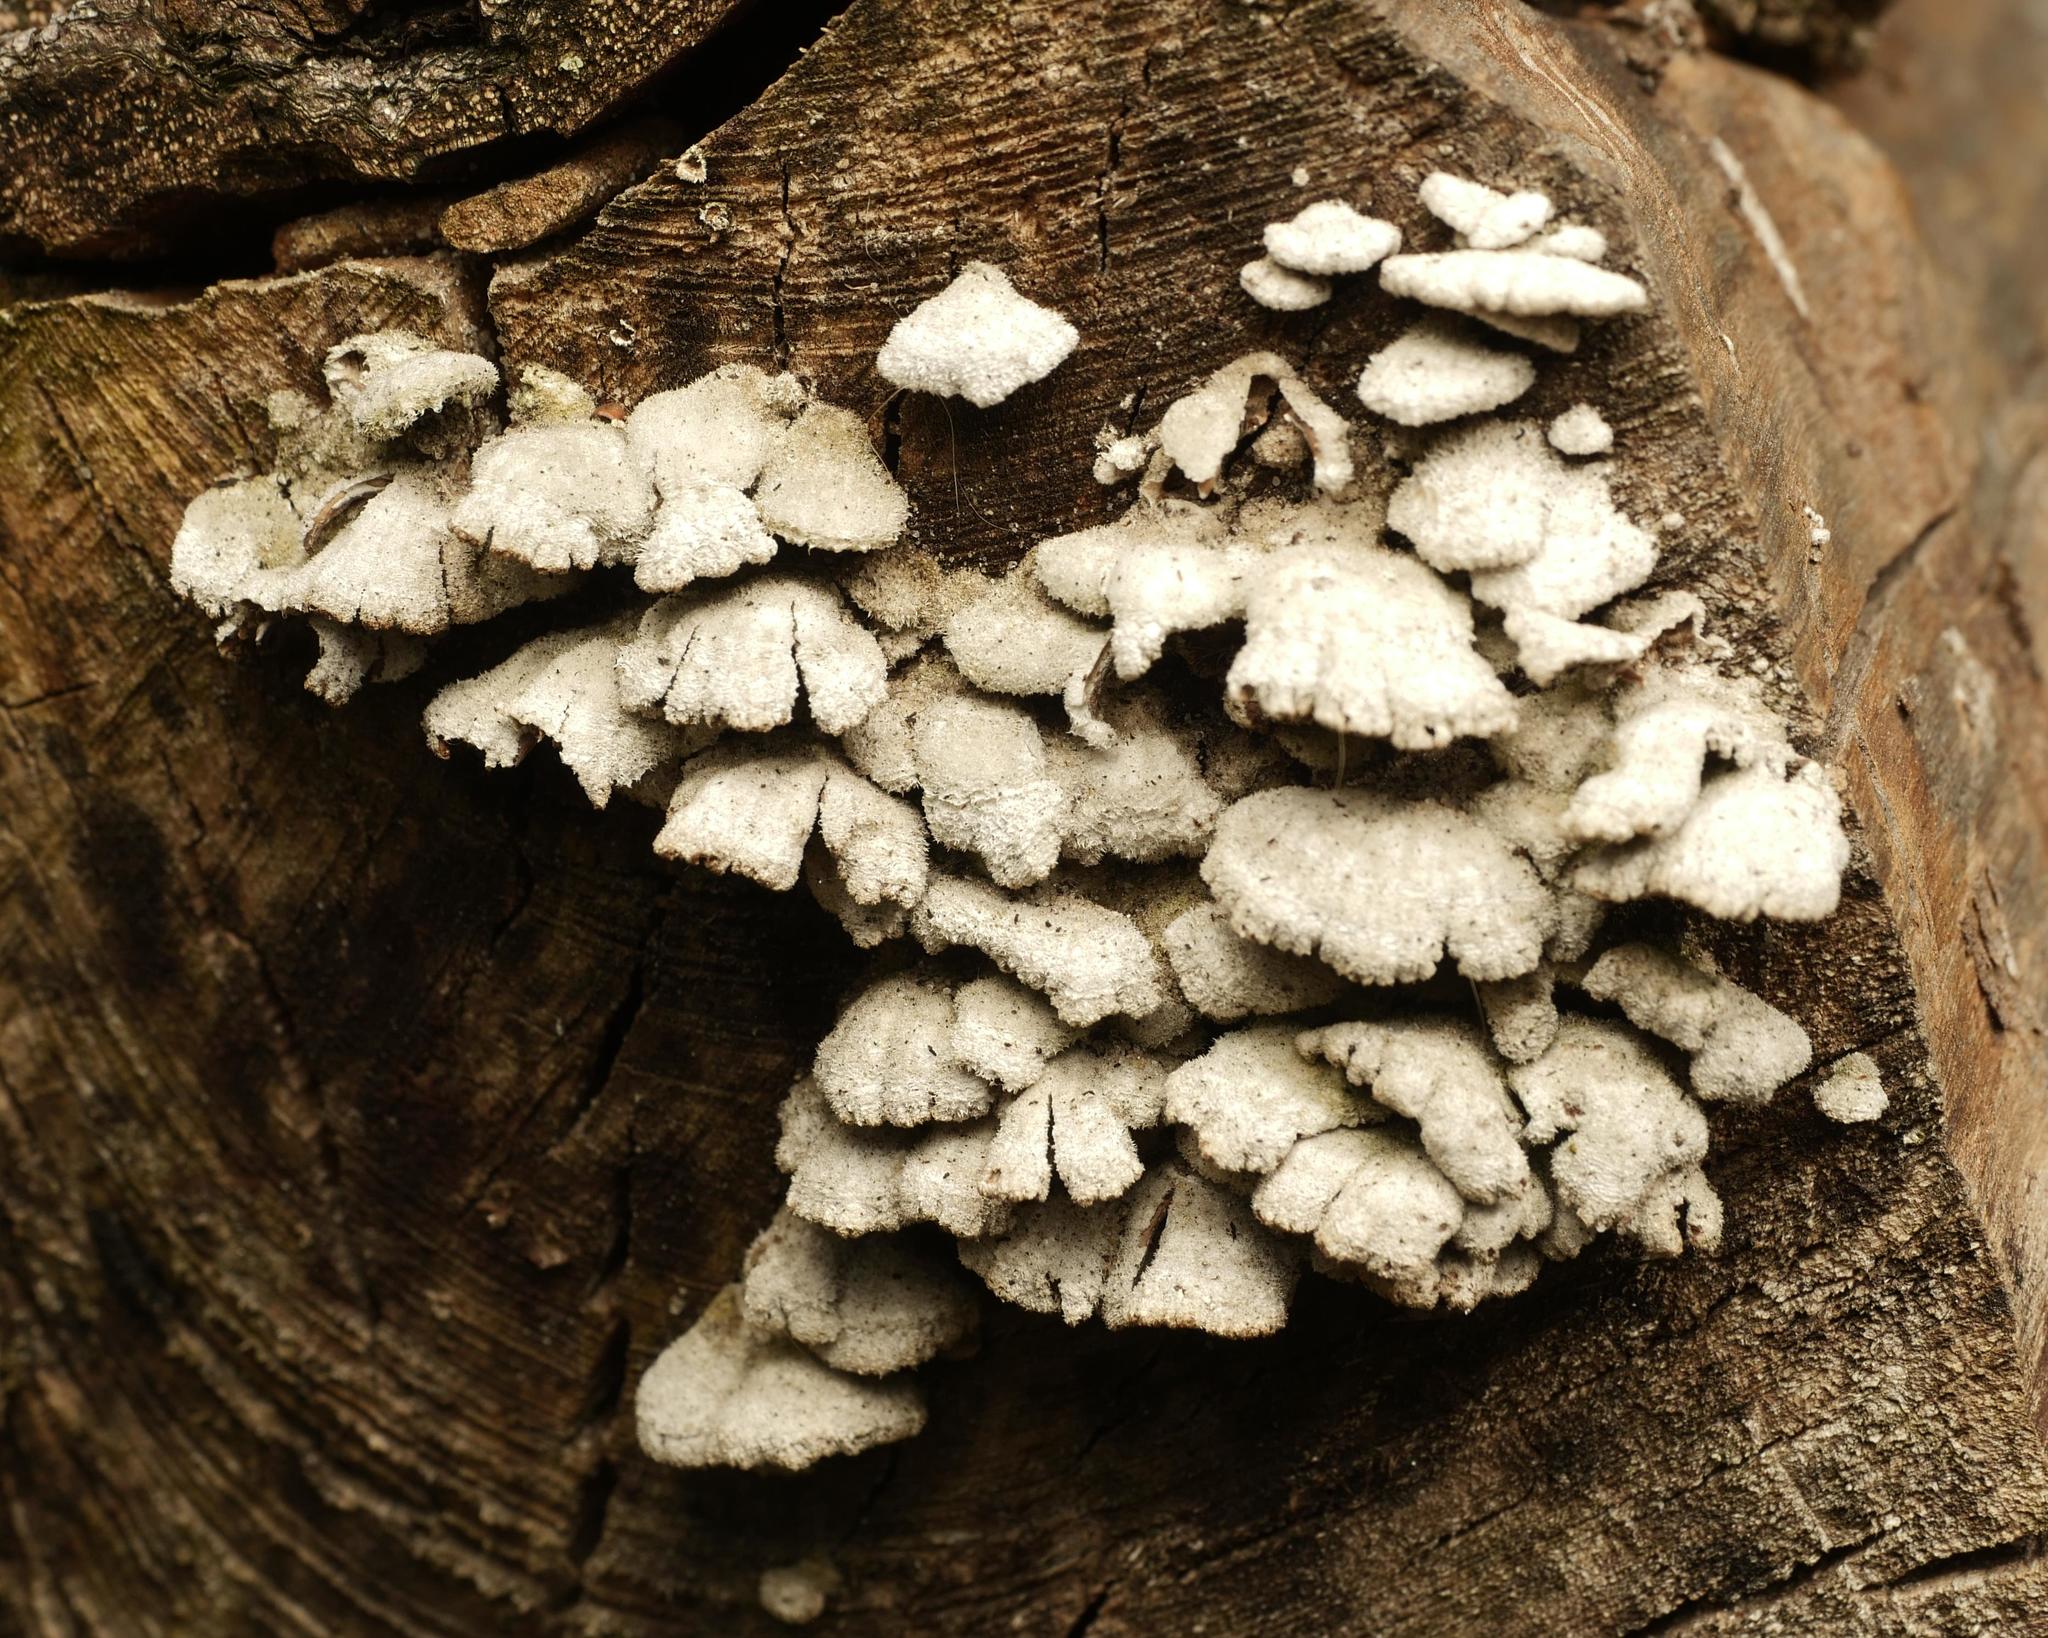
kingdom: Fungi
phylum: Basidiomycota
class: Agaricomycetes
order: Agaricales
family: Schizophyllaceae
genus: Schizophyllum
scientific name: Schizophyllum commune
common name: Common porecrust
